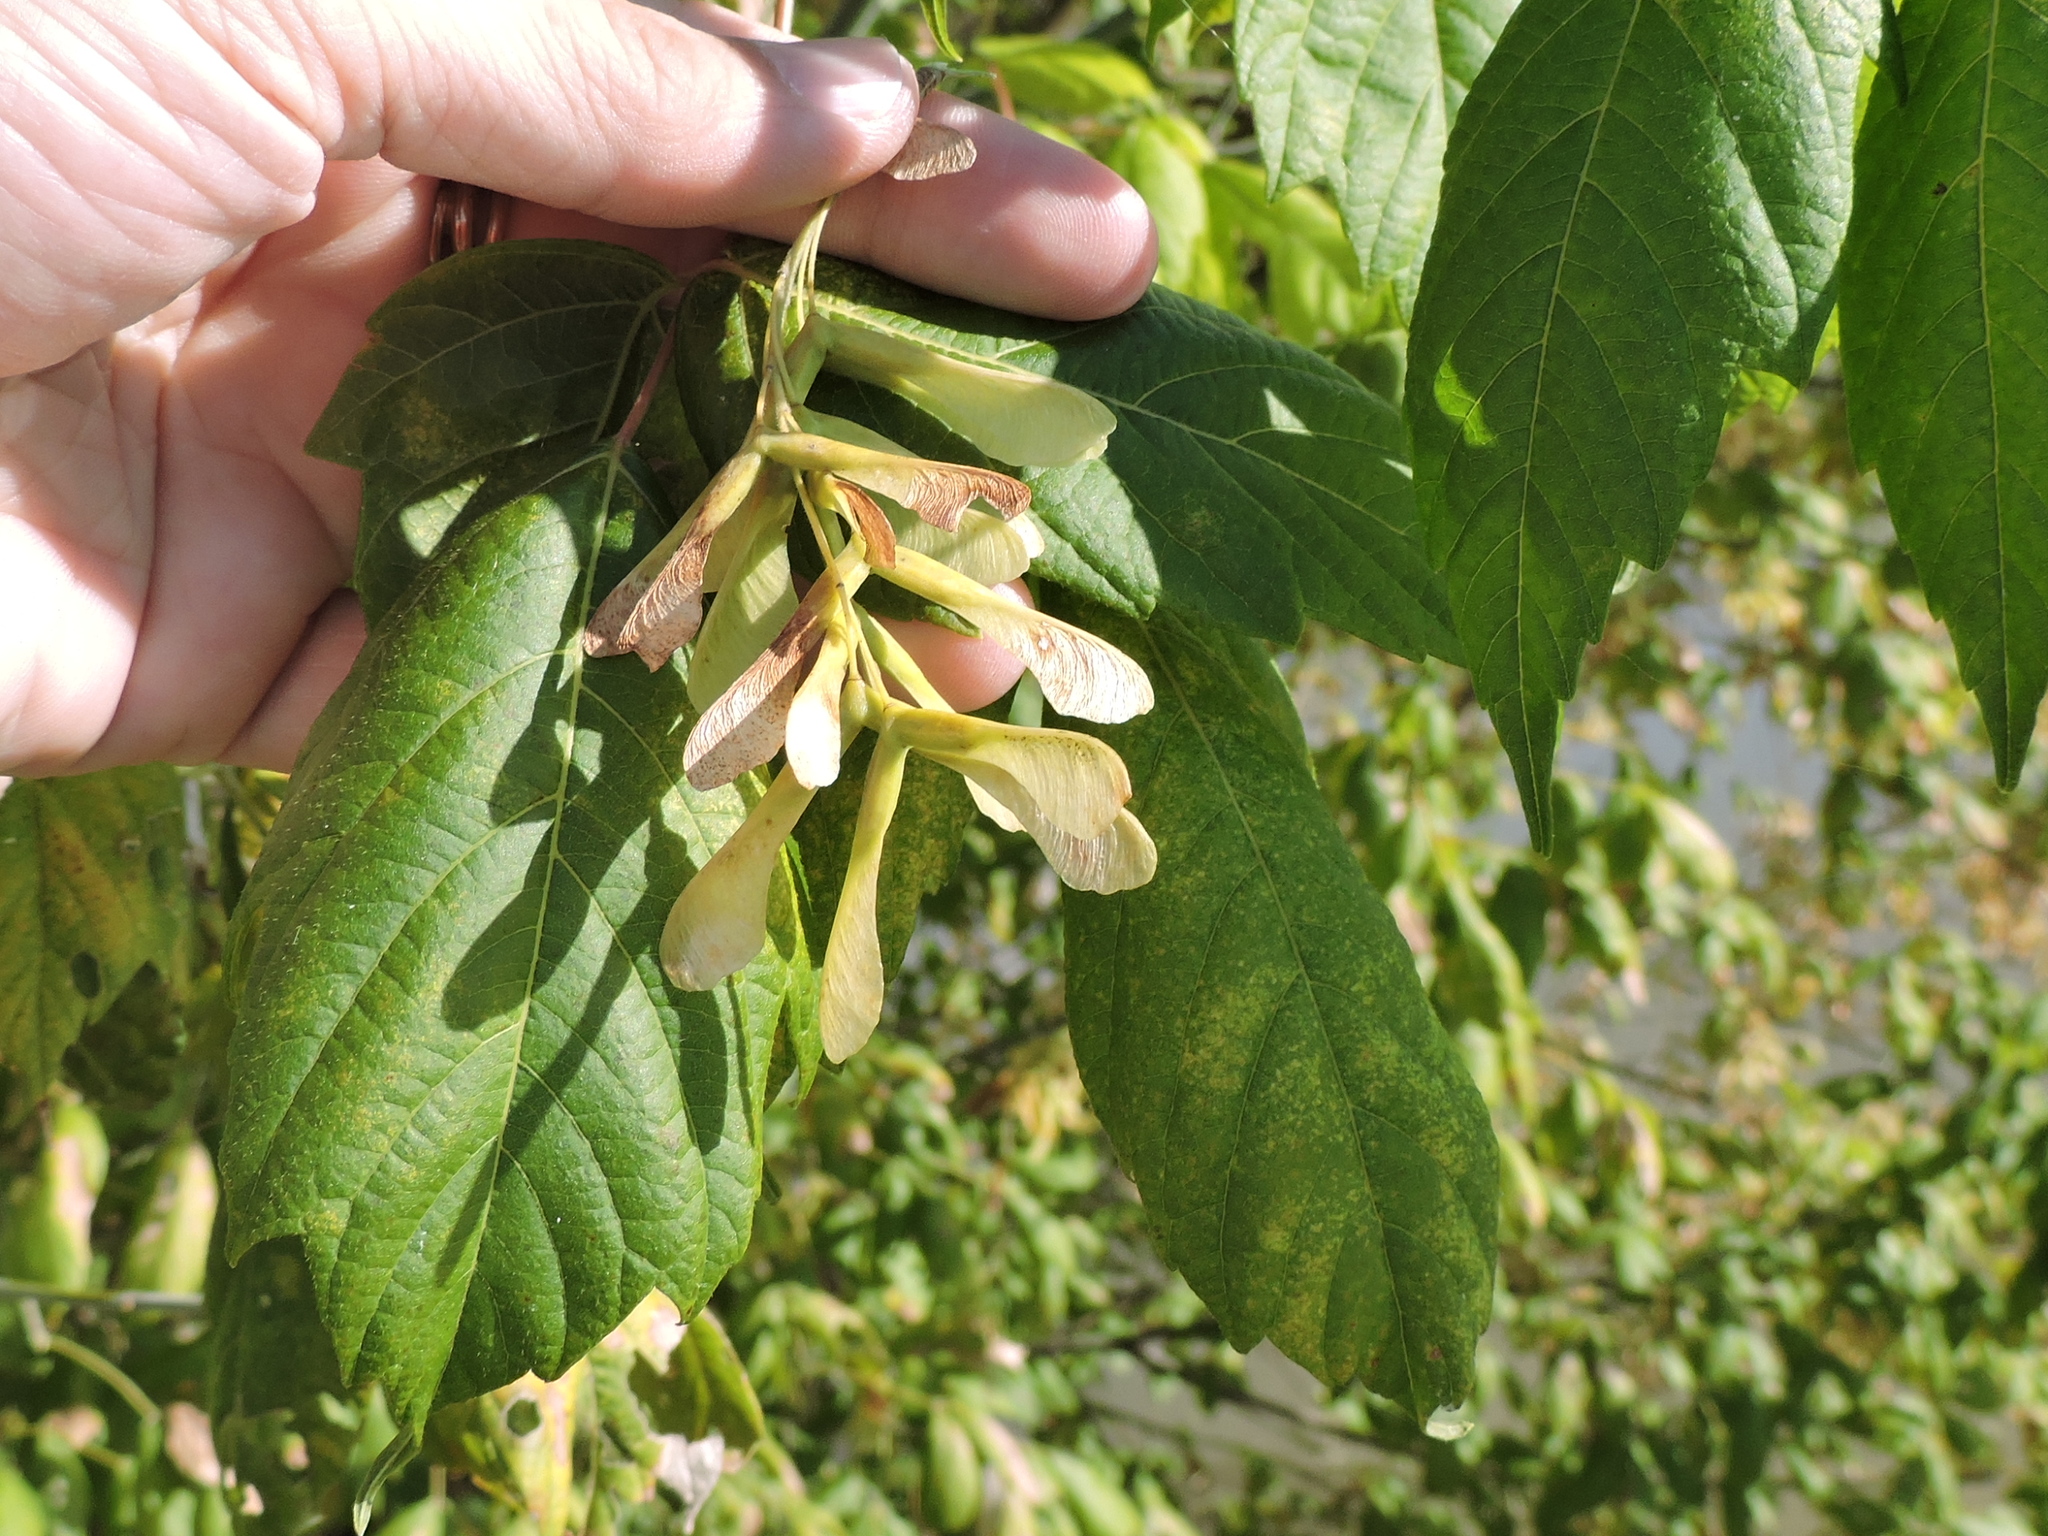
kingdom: Plantae
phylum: Tracheophyta
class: Magnoliopsida
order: Sapindales
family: Sapindaceae
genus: Acer
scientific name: Acer negundo
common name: Ashleaf maple
